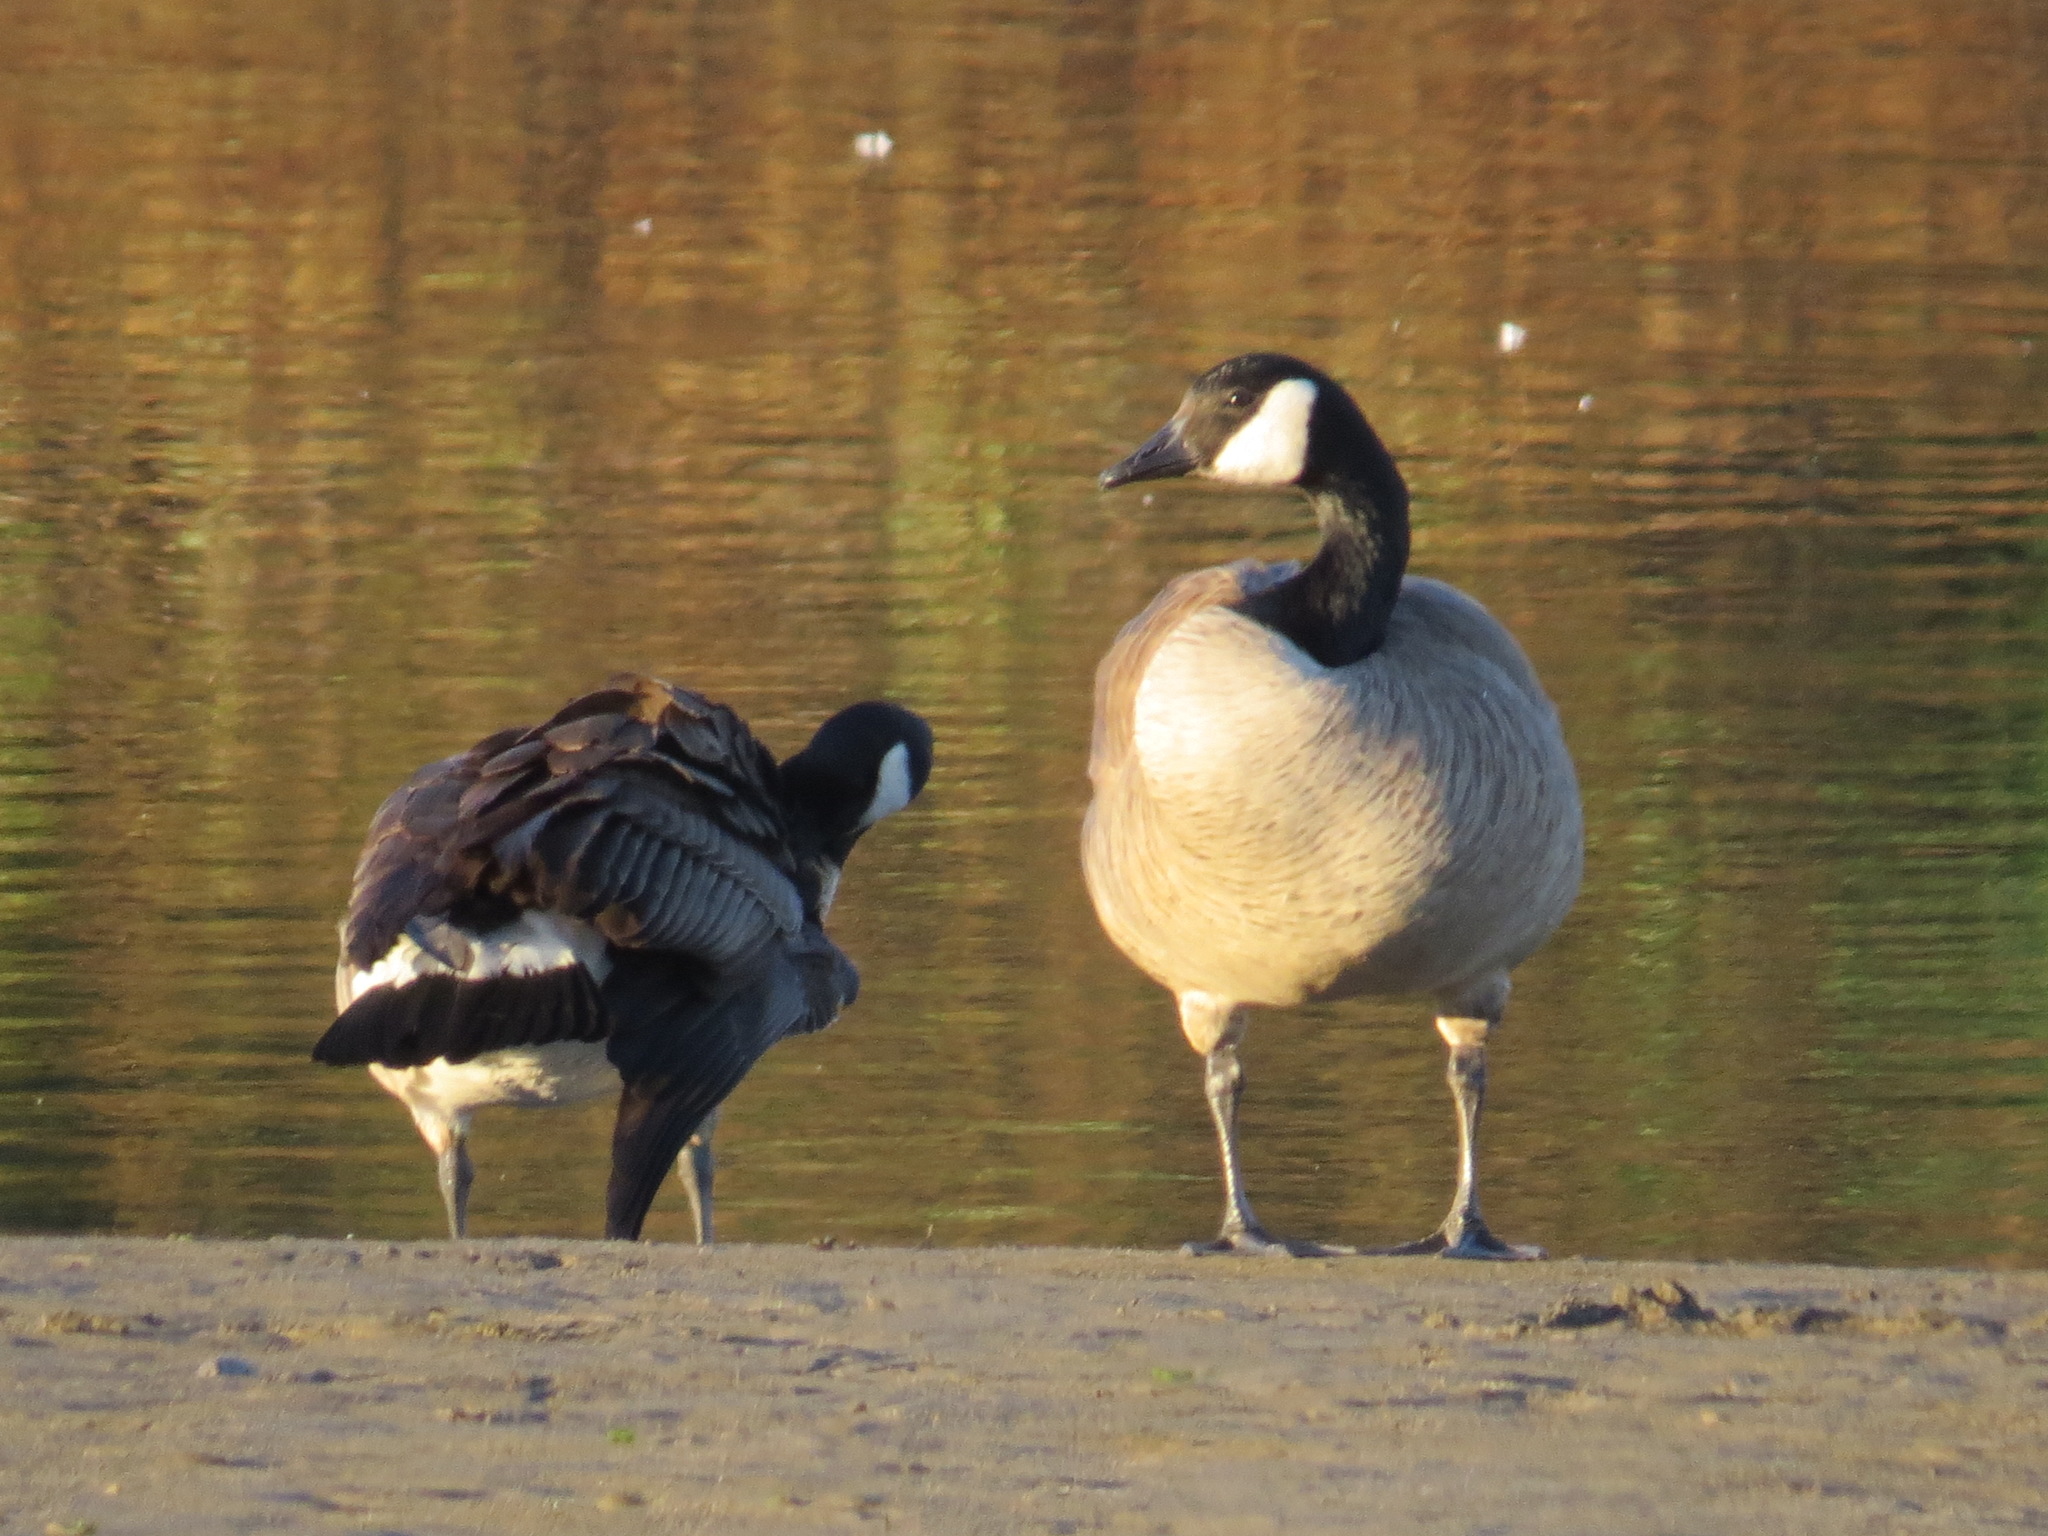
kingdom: Animalia
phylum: Chordata
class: Aves
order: Anseriformes
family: Anatidae
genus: Branta
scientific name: Branta canadensis
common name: Canada goose
